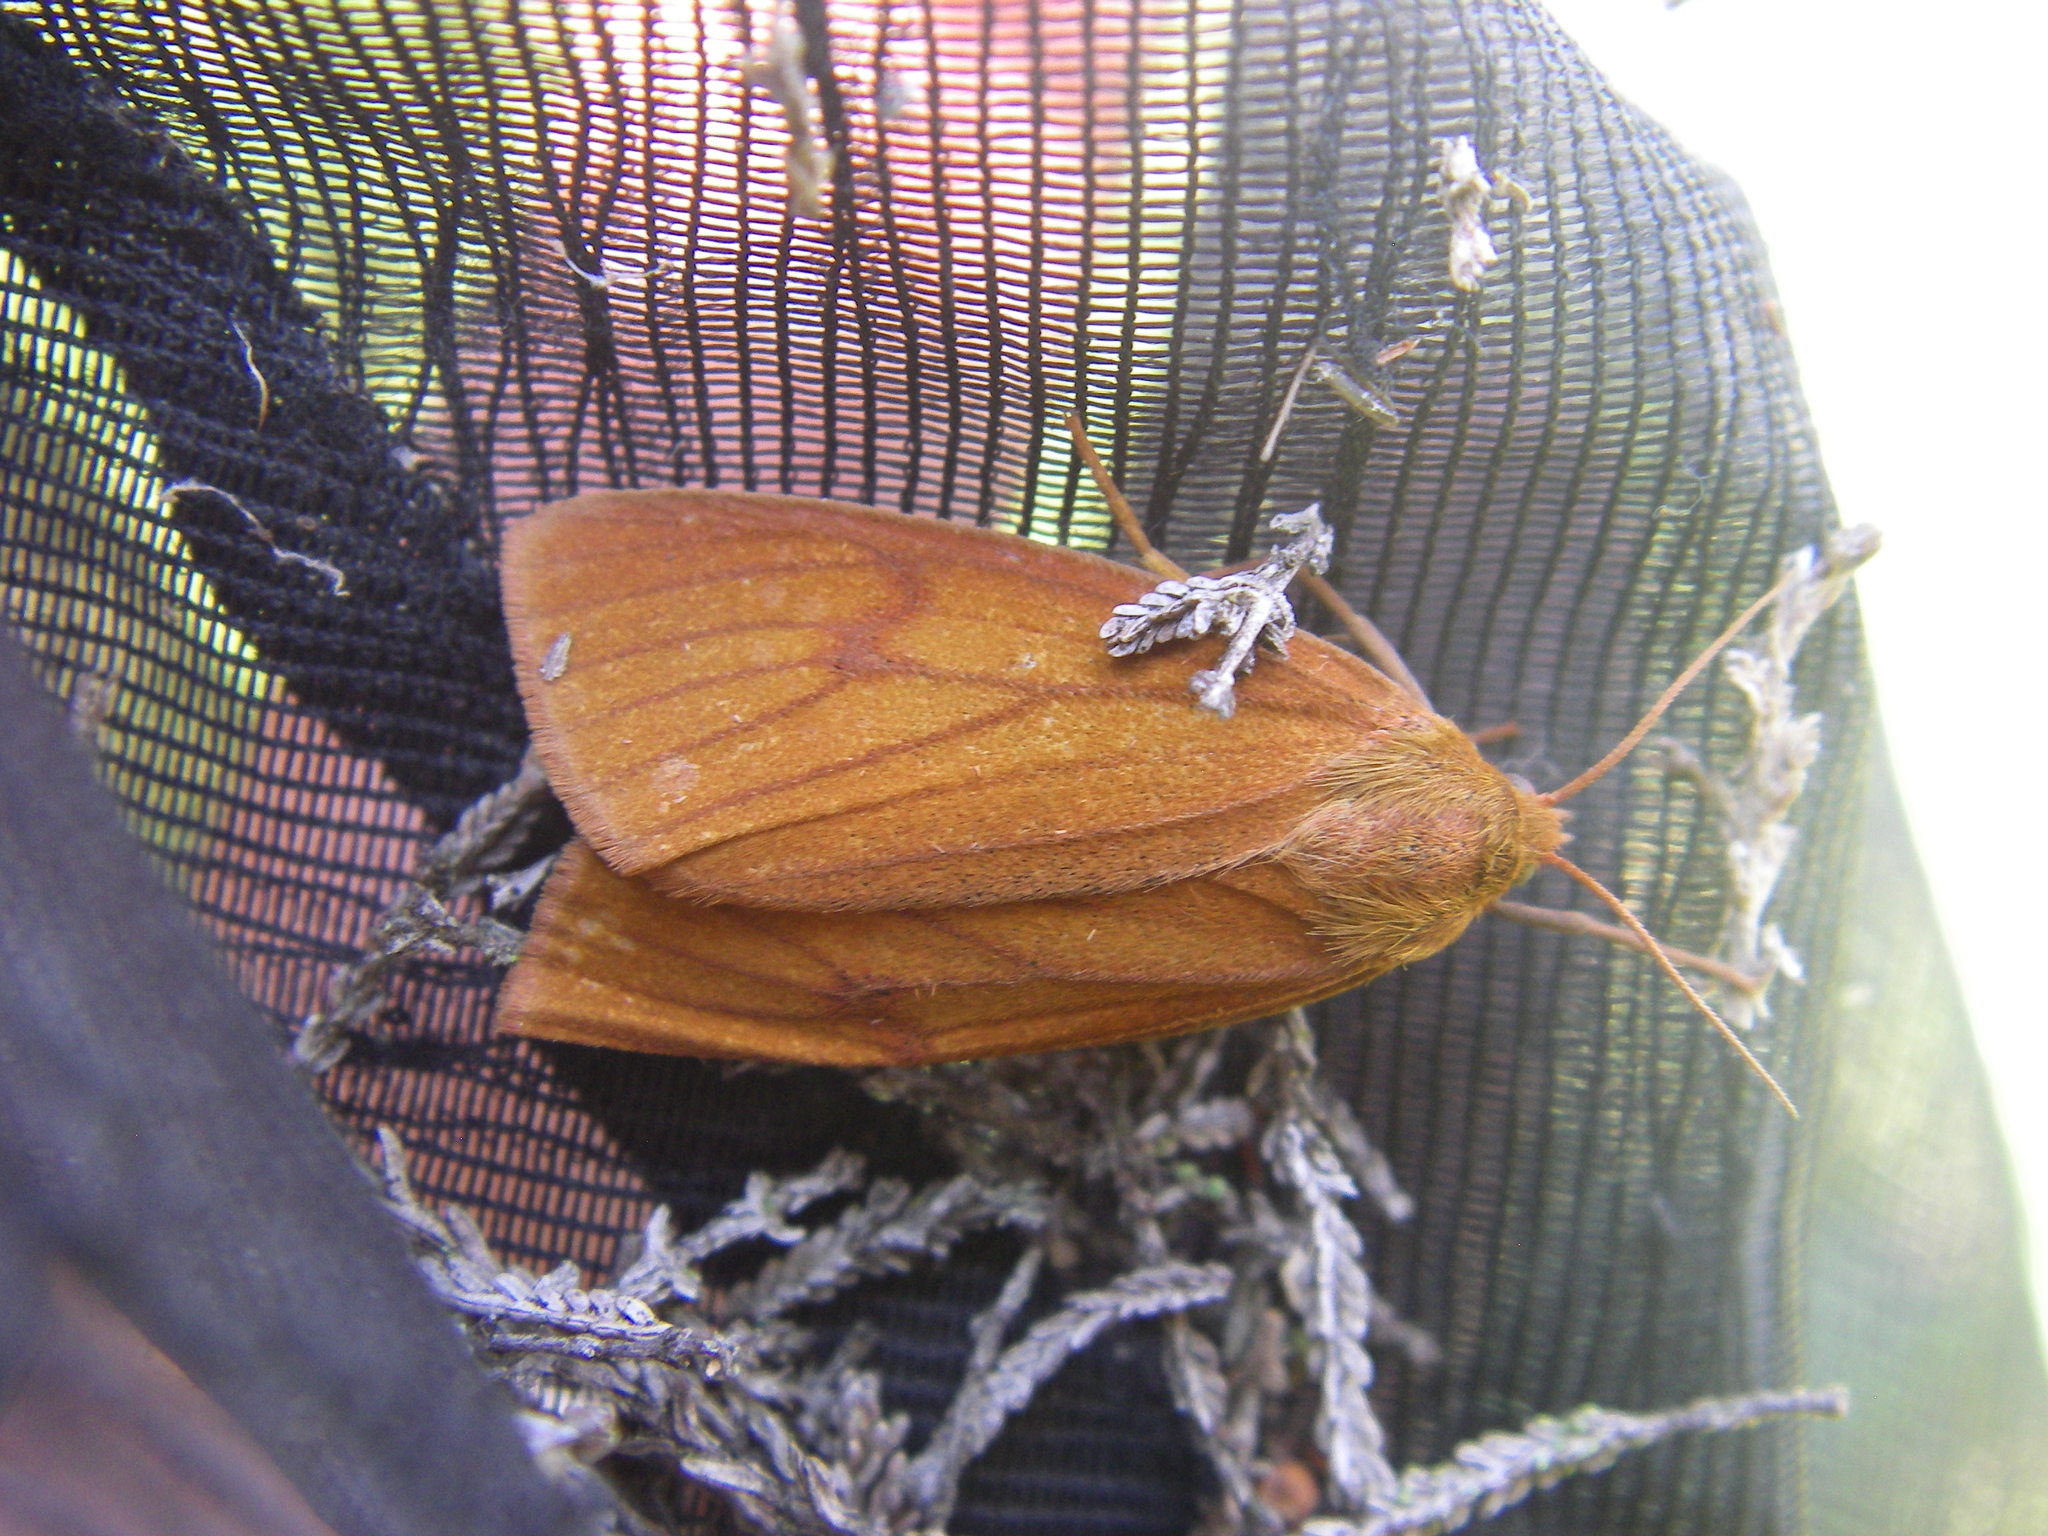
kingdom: Animalia
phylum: Arthropoda
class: Insecta
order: Lepidoptera
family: Erebidae
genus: Diacrisia
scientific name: Diacrisia sannio
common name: Clouded buff
